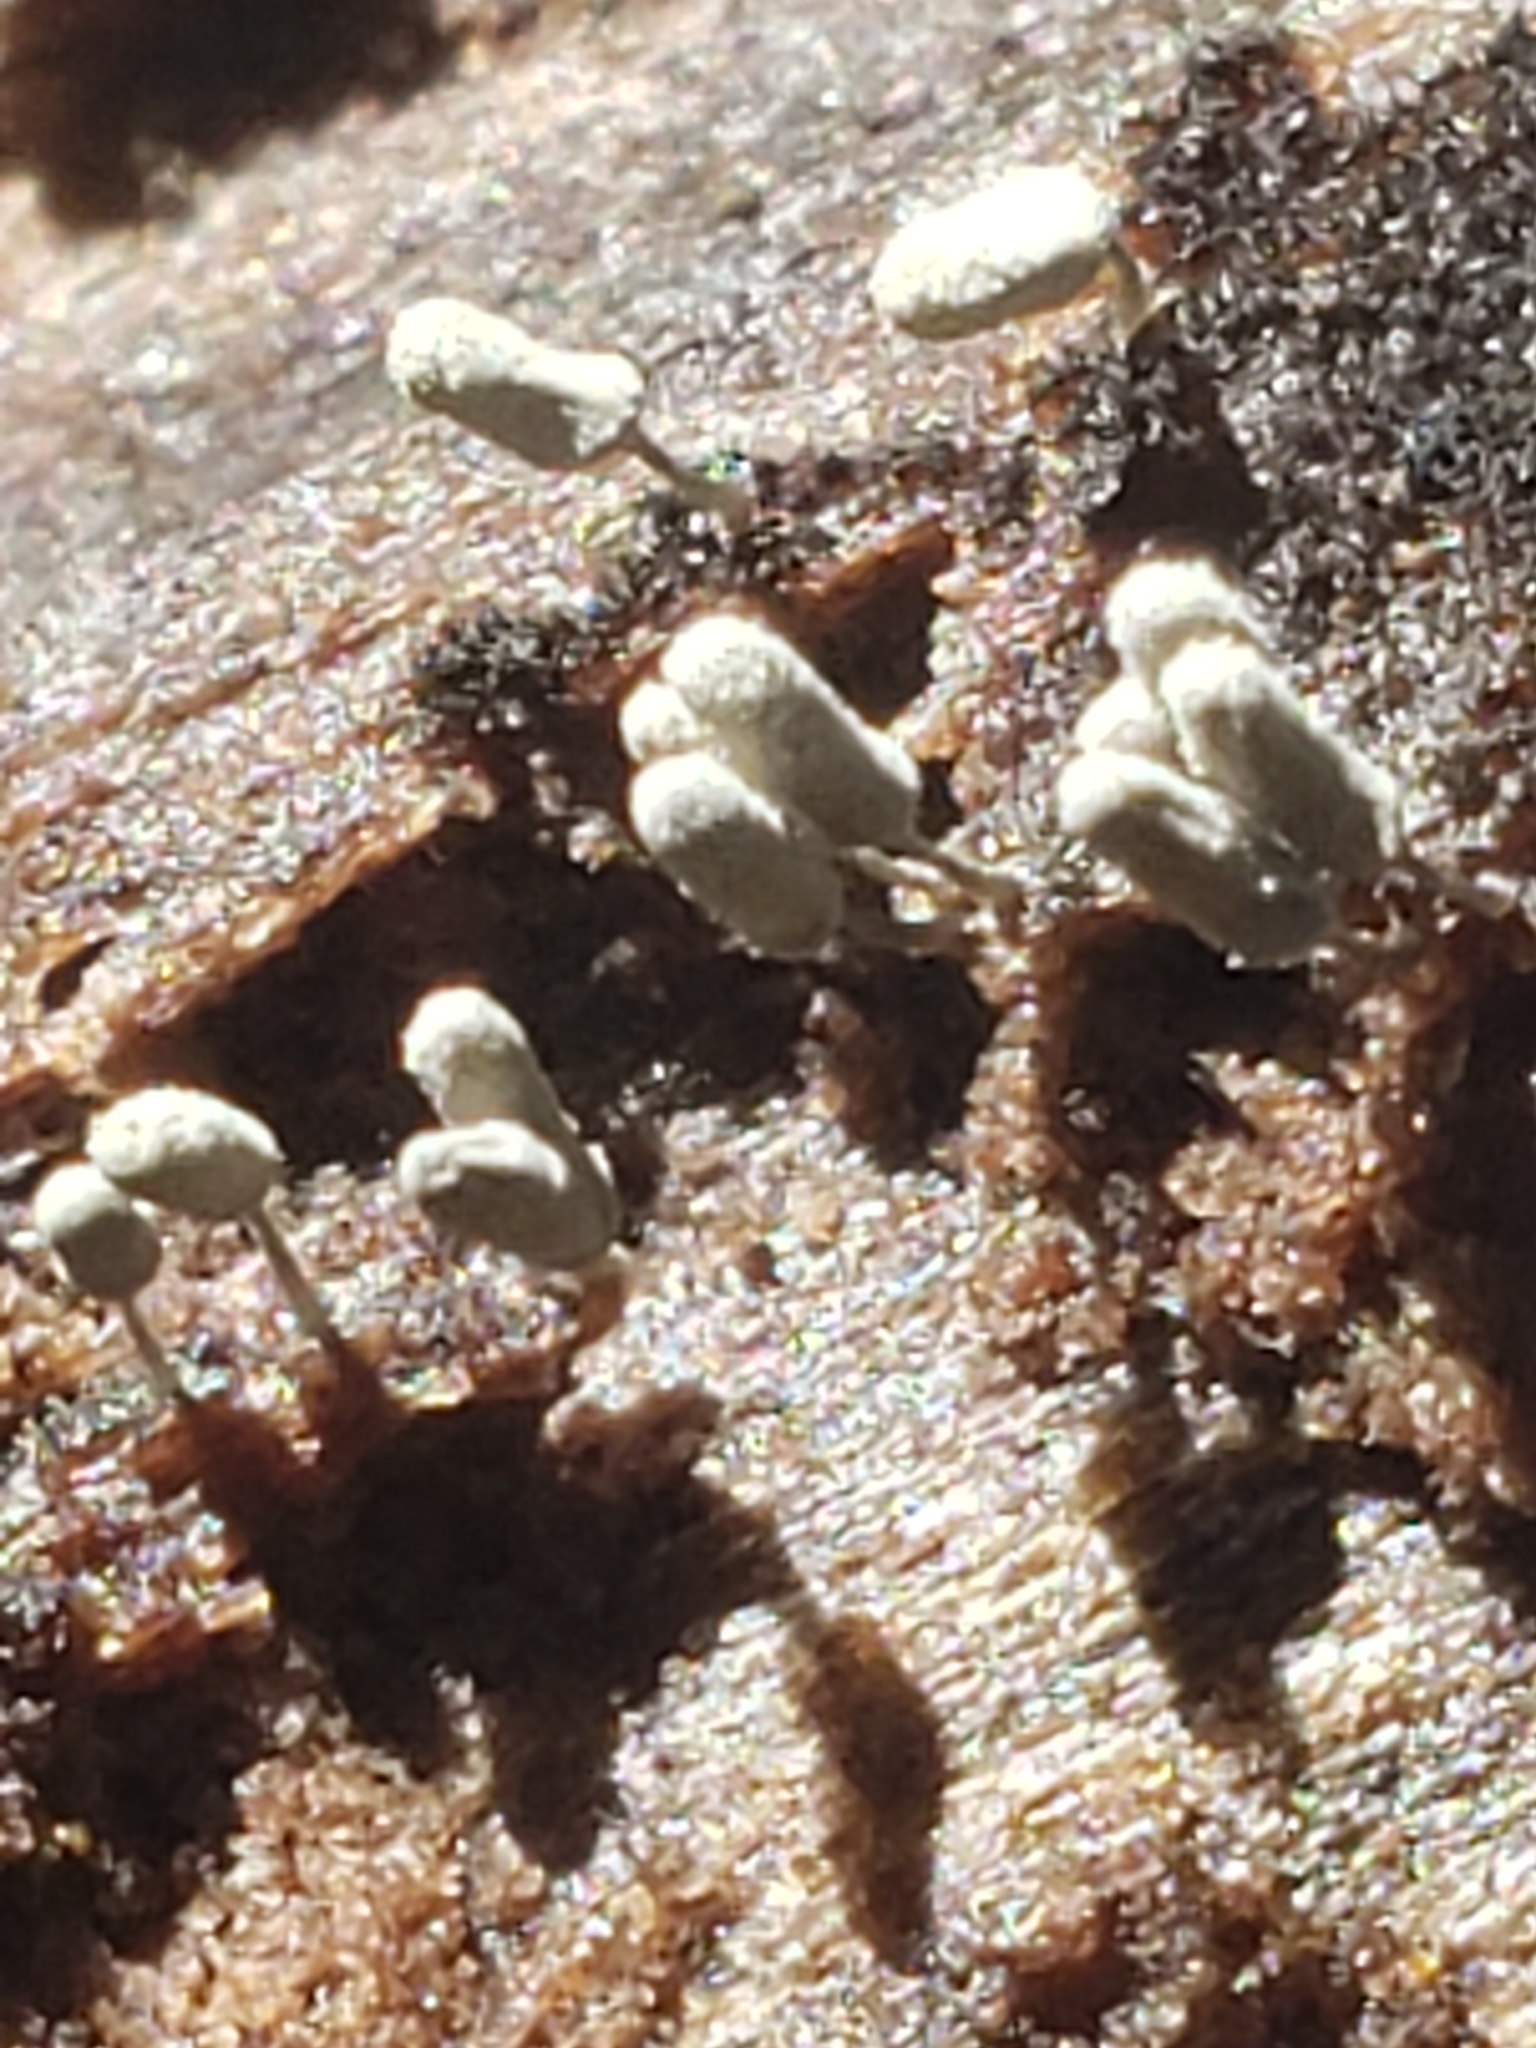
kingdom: Protozoa
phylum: Mycetozoa
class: Myxomycetes
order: Trichiales
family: Arcyriaceae
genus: Arcyria
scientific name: Arcyria cinerea
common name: White carnival candy slime mold
